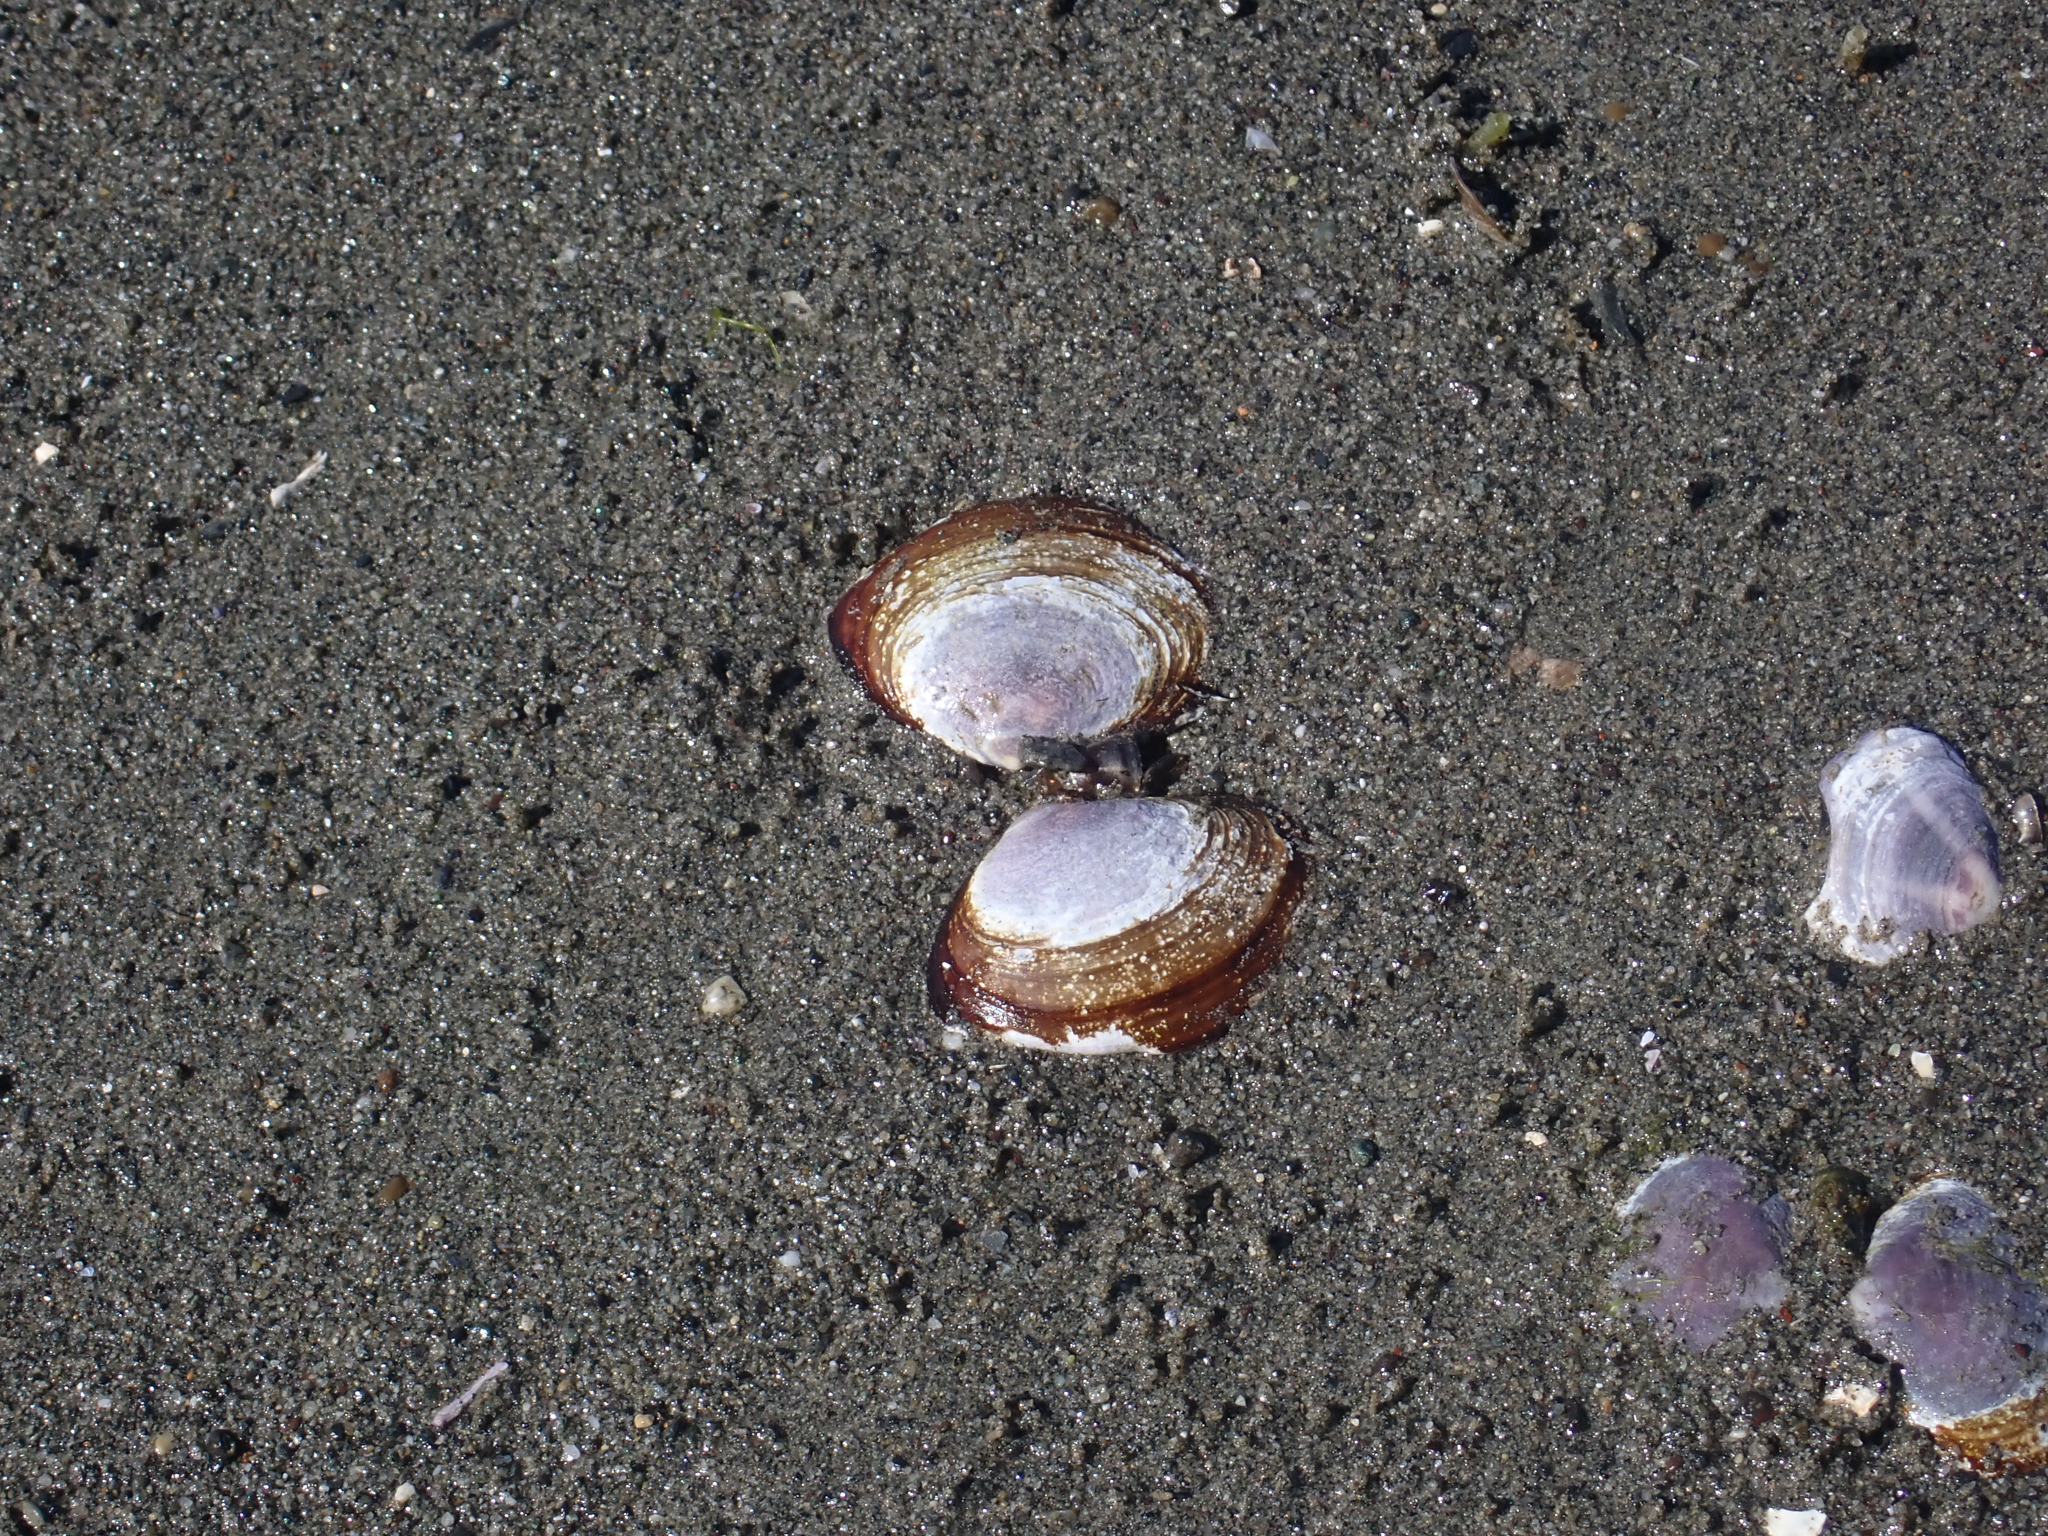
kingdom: Animalia
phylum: Mollusca
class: Bivalvia
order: Cardiida
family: Psammobiidae
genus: Nuttallia
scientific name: Nuttallia obscurata
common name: Purple mahogany-clam
